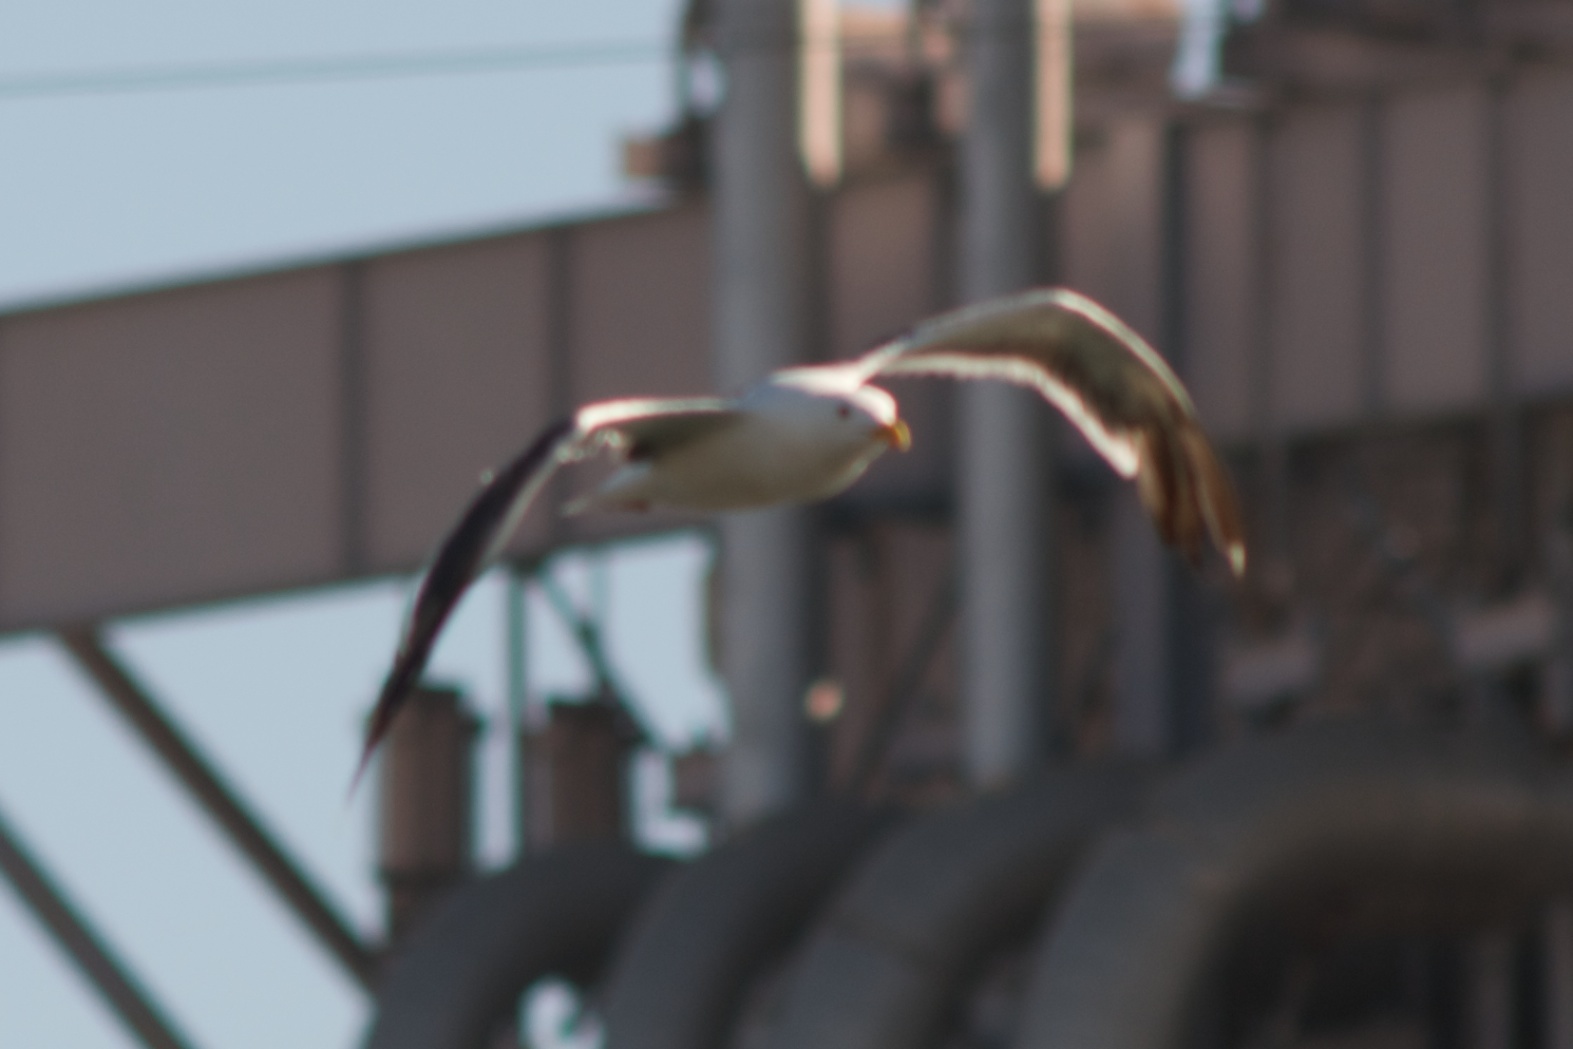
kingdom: Animalia
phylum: Chordata
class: Aves
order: Charadriiformes
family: Laridae
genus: Larus
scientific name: Larus occidentalis
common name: Western gull
